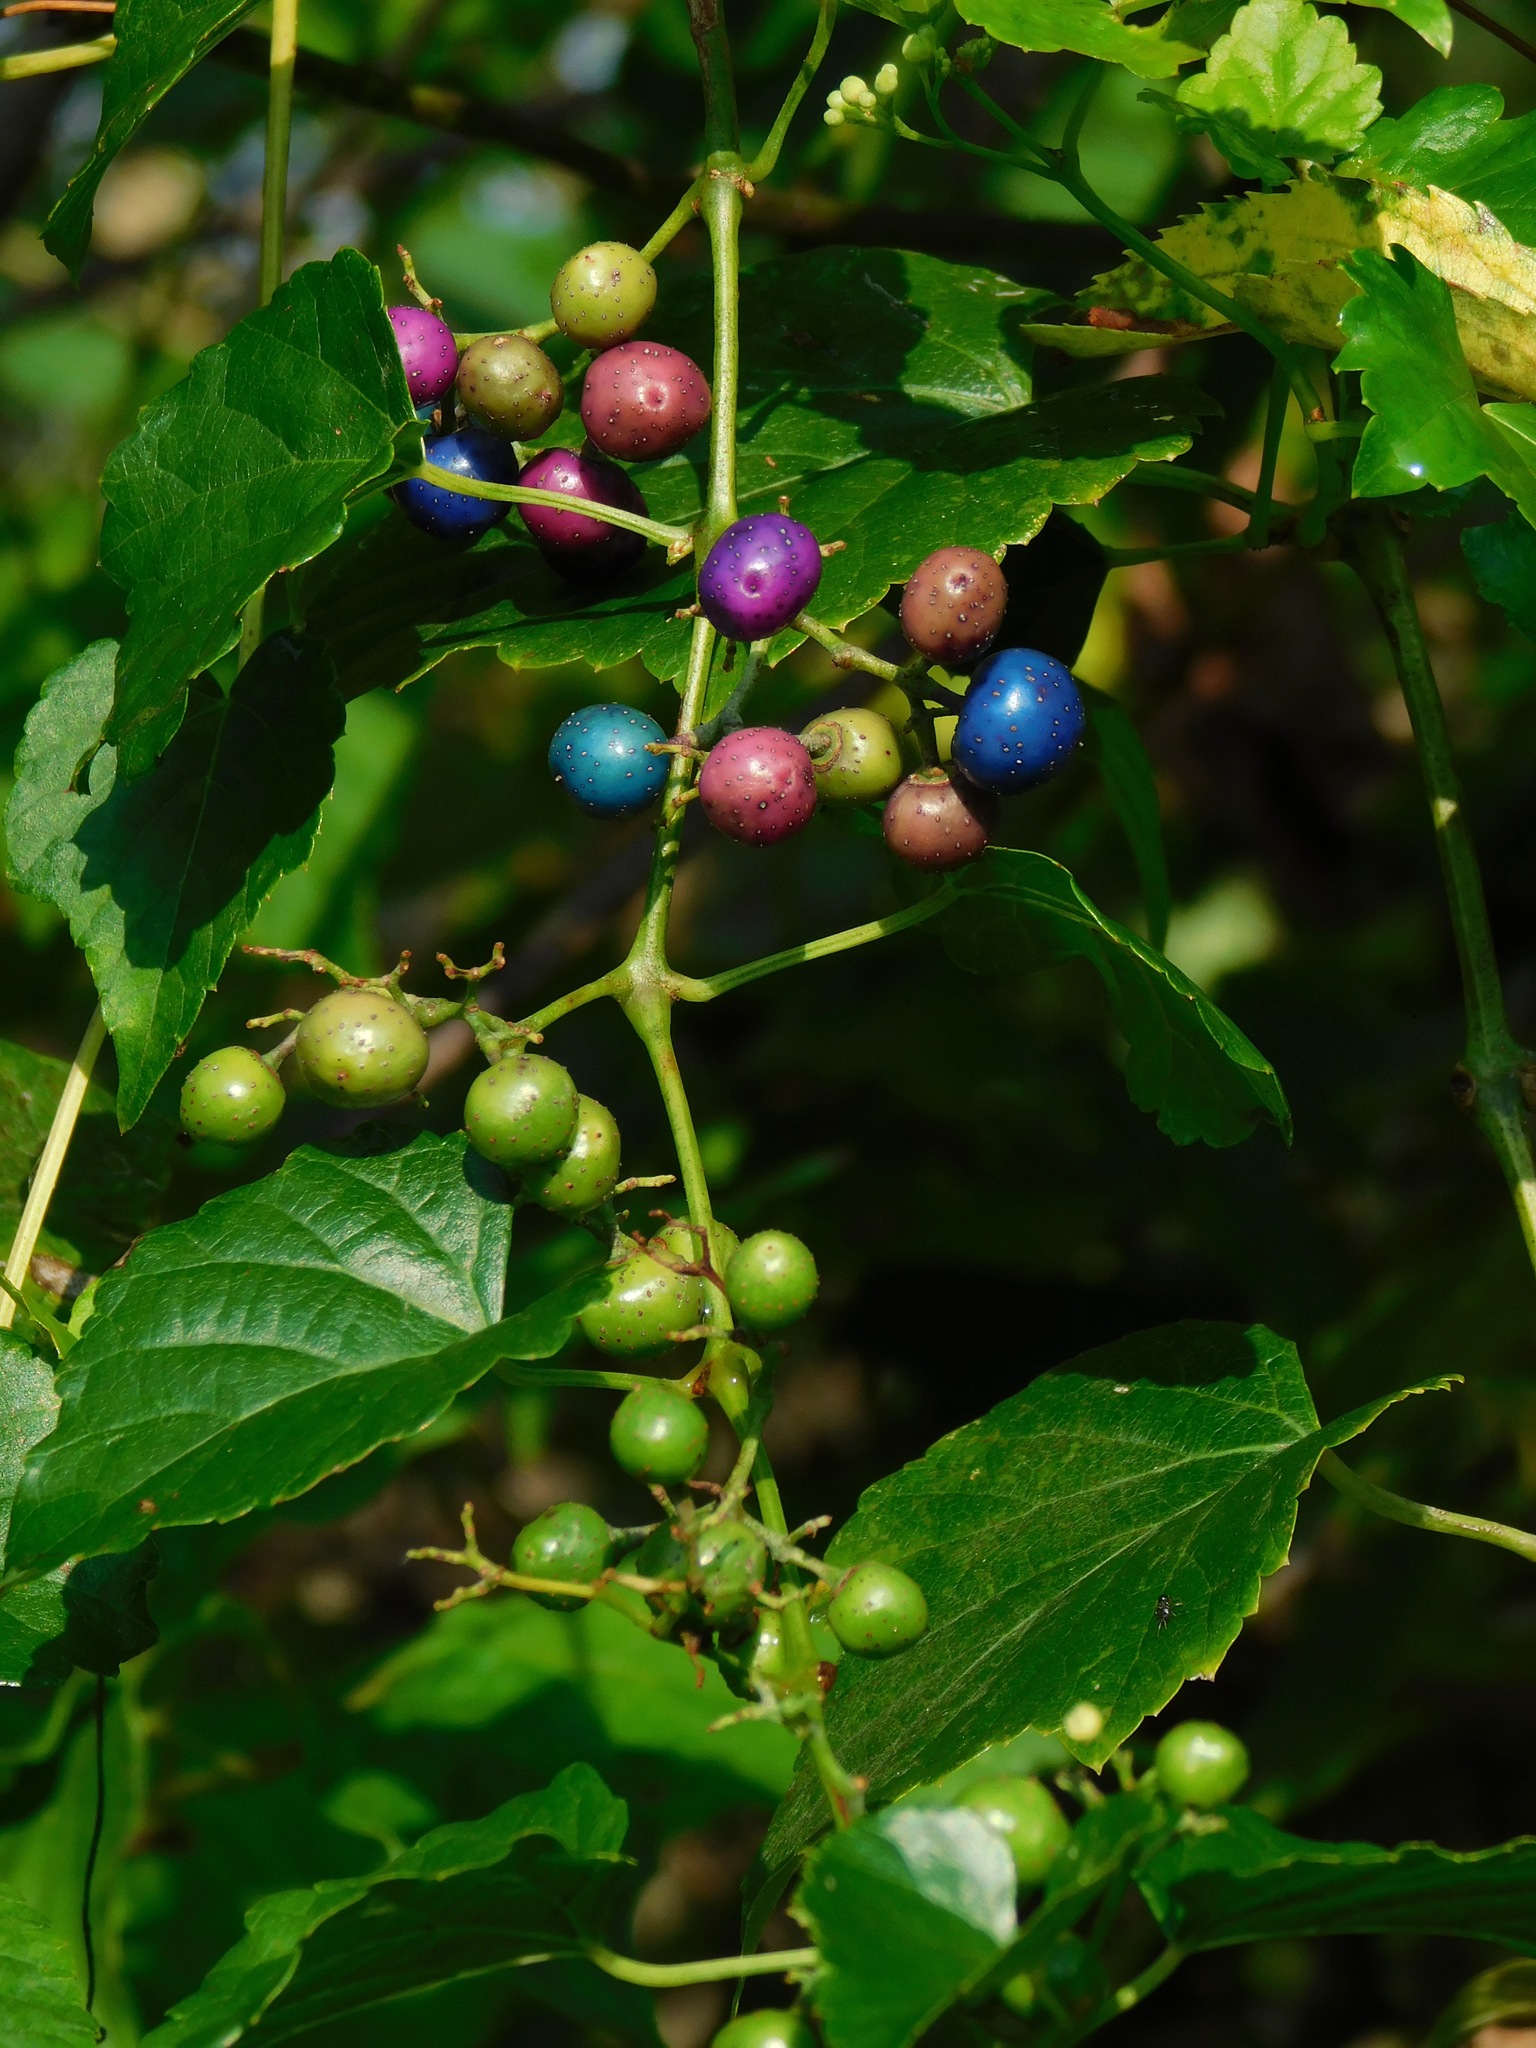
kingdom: Plantae
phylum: Tracheophyta
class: Magnoliopsida
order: Vitales
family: Vitaceae
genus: Ampelopsis
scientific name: Ampelopsis glandulosa
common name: Amur peppervine
